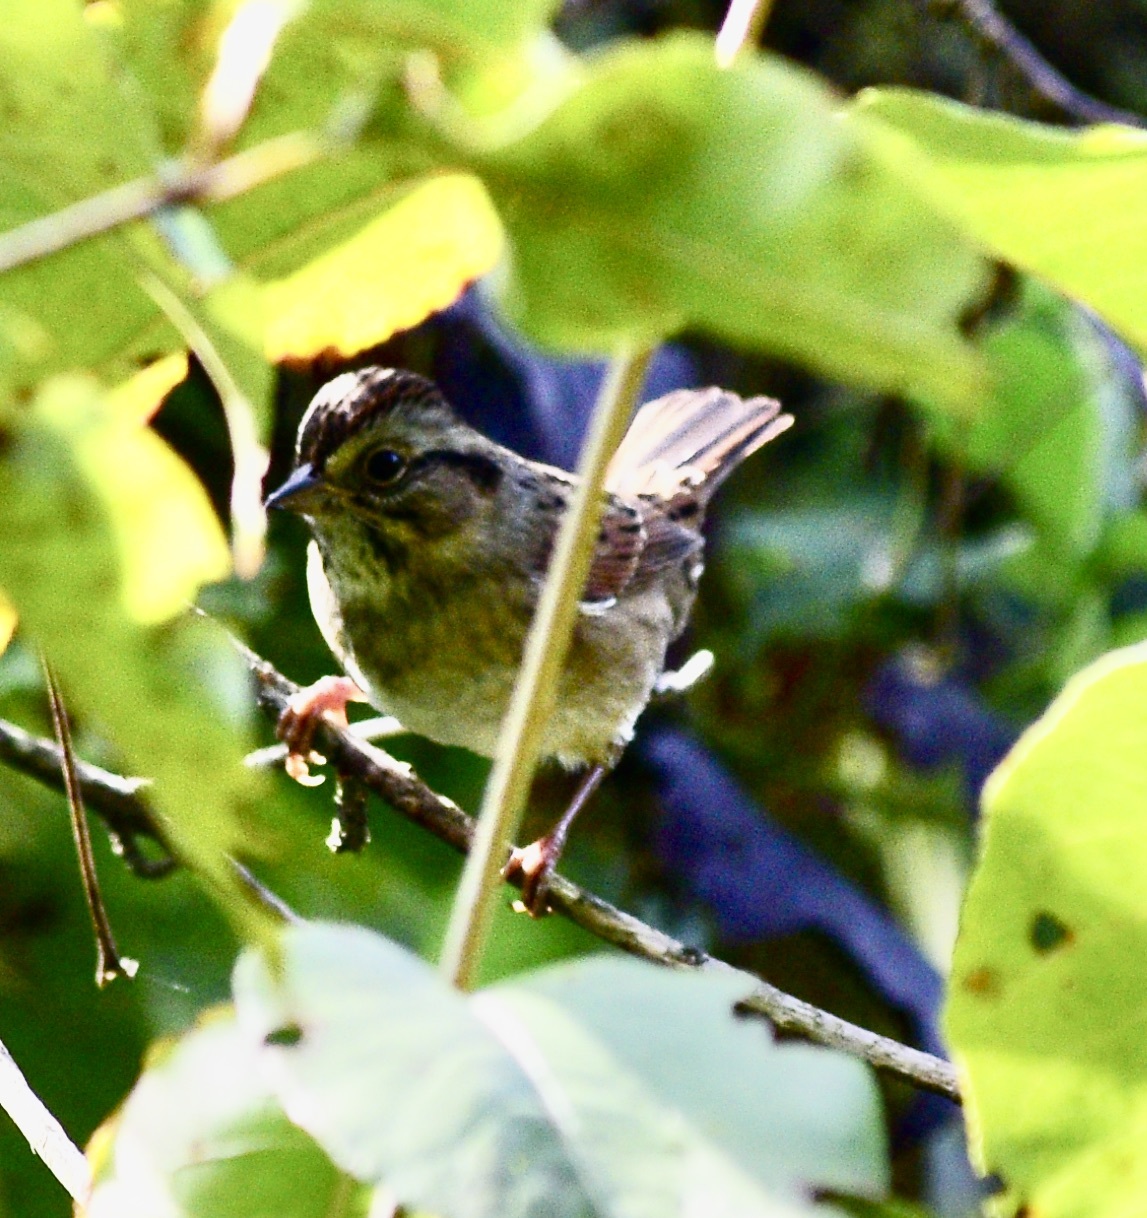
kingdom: Animalia
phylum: Chordata
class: Aves
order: Passeriformes
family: Passerellidae
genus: Melospiza
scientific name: Melospiza georgiana
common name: Swamp sparrow
